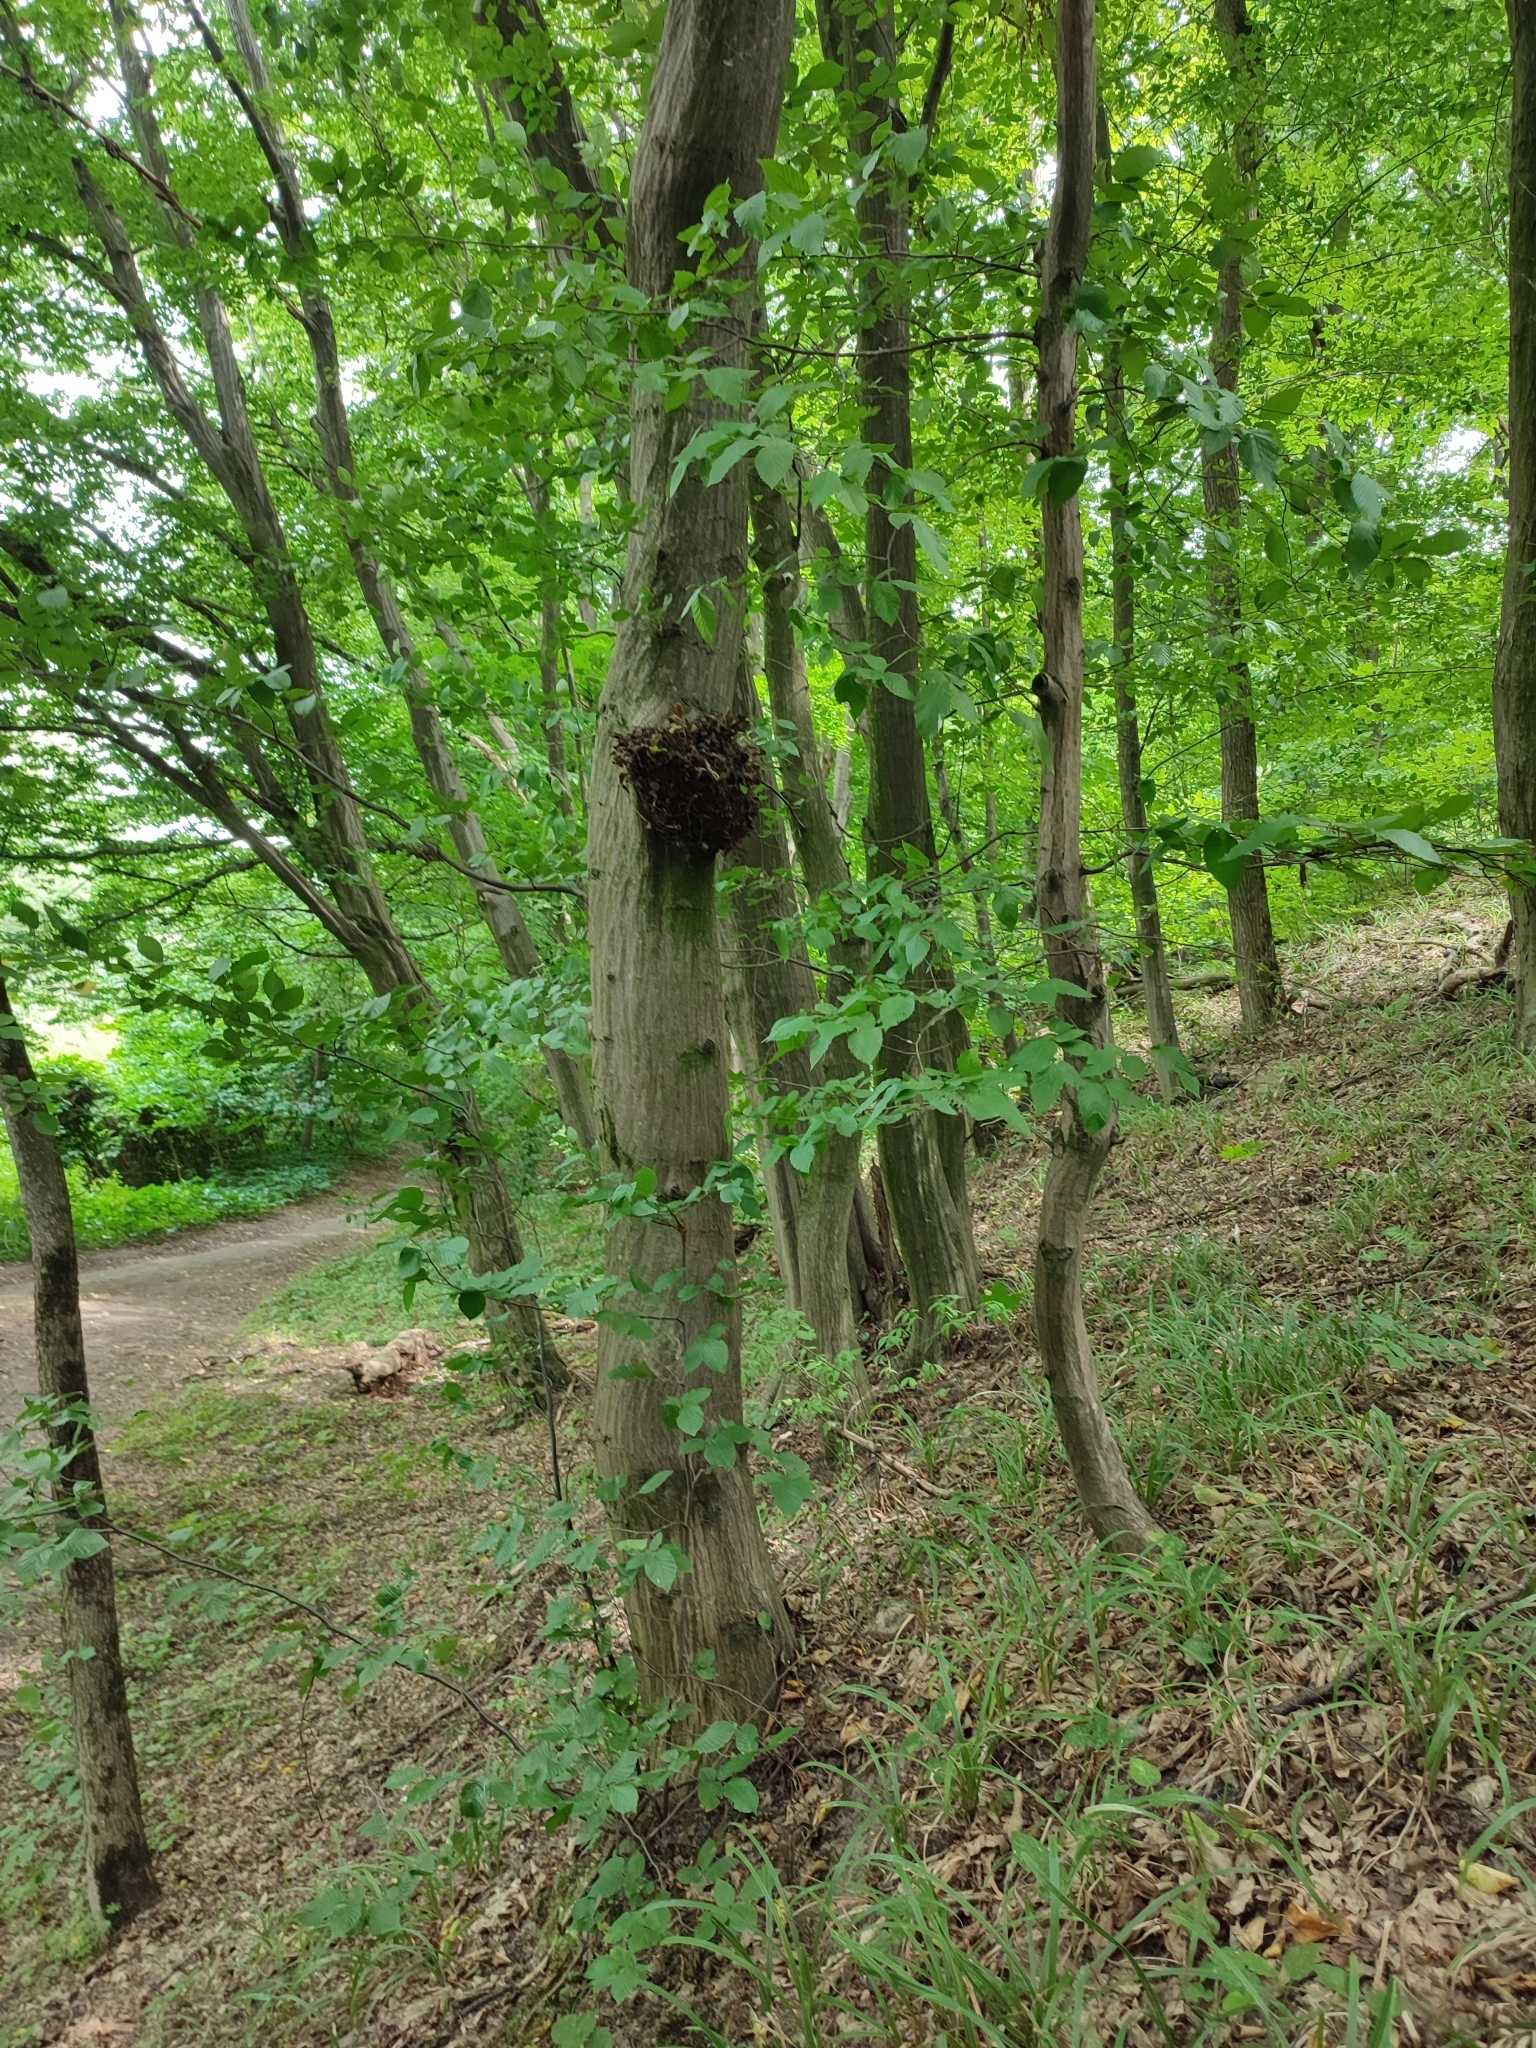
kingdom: Plantae
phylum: Tracheophyta
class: Magnoliopsida
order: Fagales
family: Betulaceae
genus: Carpinus
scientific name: Carpinus betulus
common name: Hornbeam
